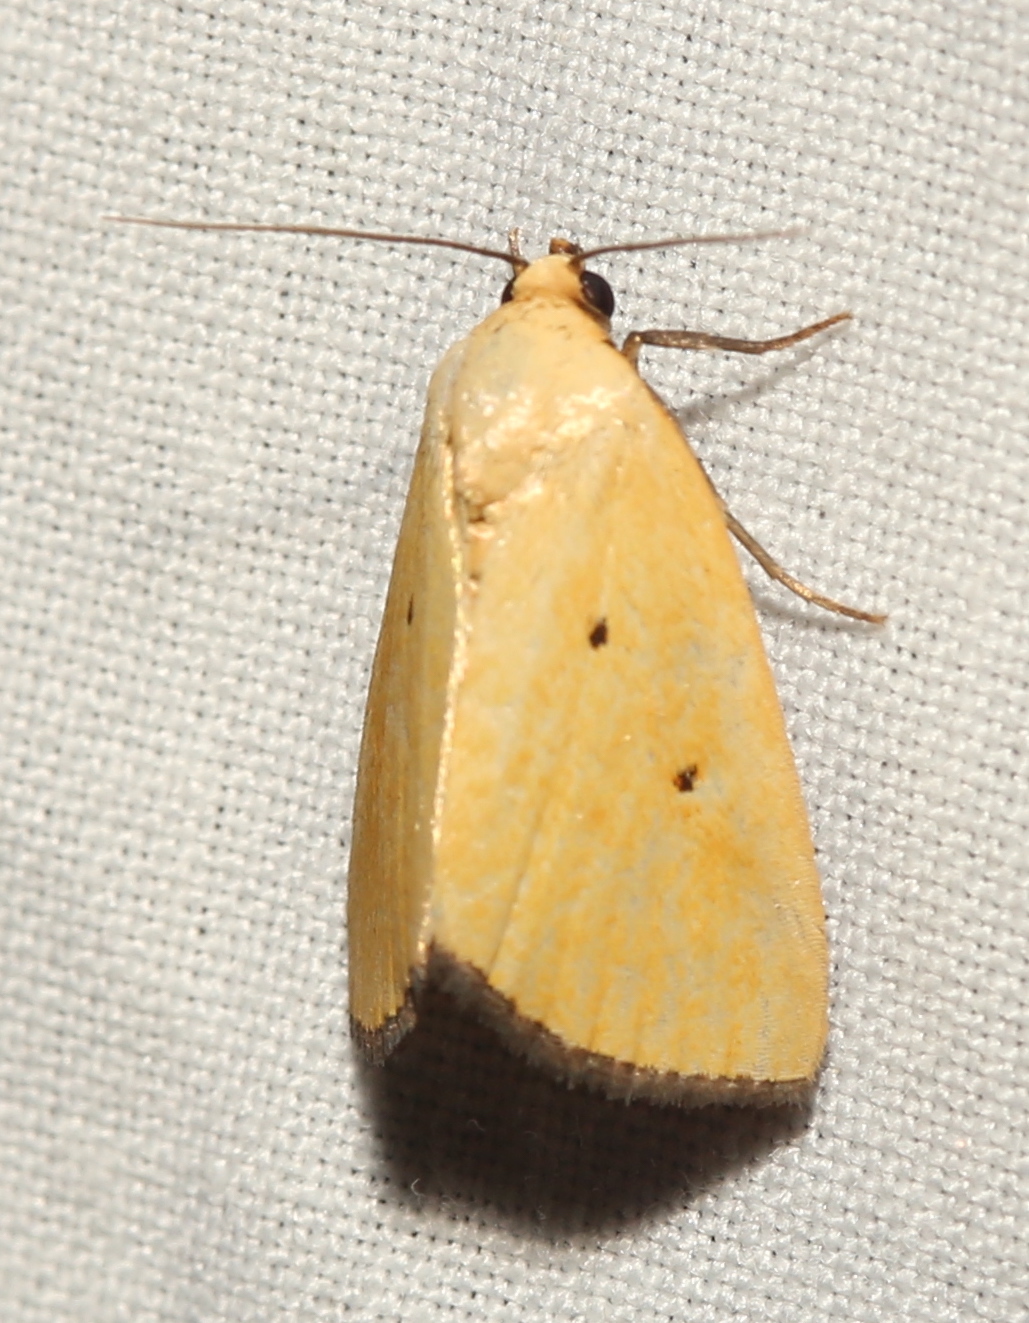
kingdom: Animalia
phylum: Arthropoda
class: Insecta
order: Lepidoptera
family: Noctuidae
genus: Marimatha
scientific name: Marimatha nigrofimbria
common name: Black-bordered lemon moth
